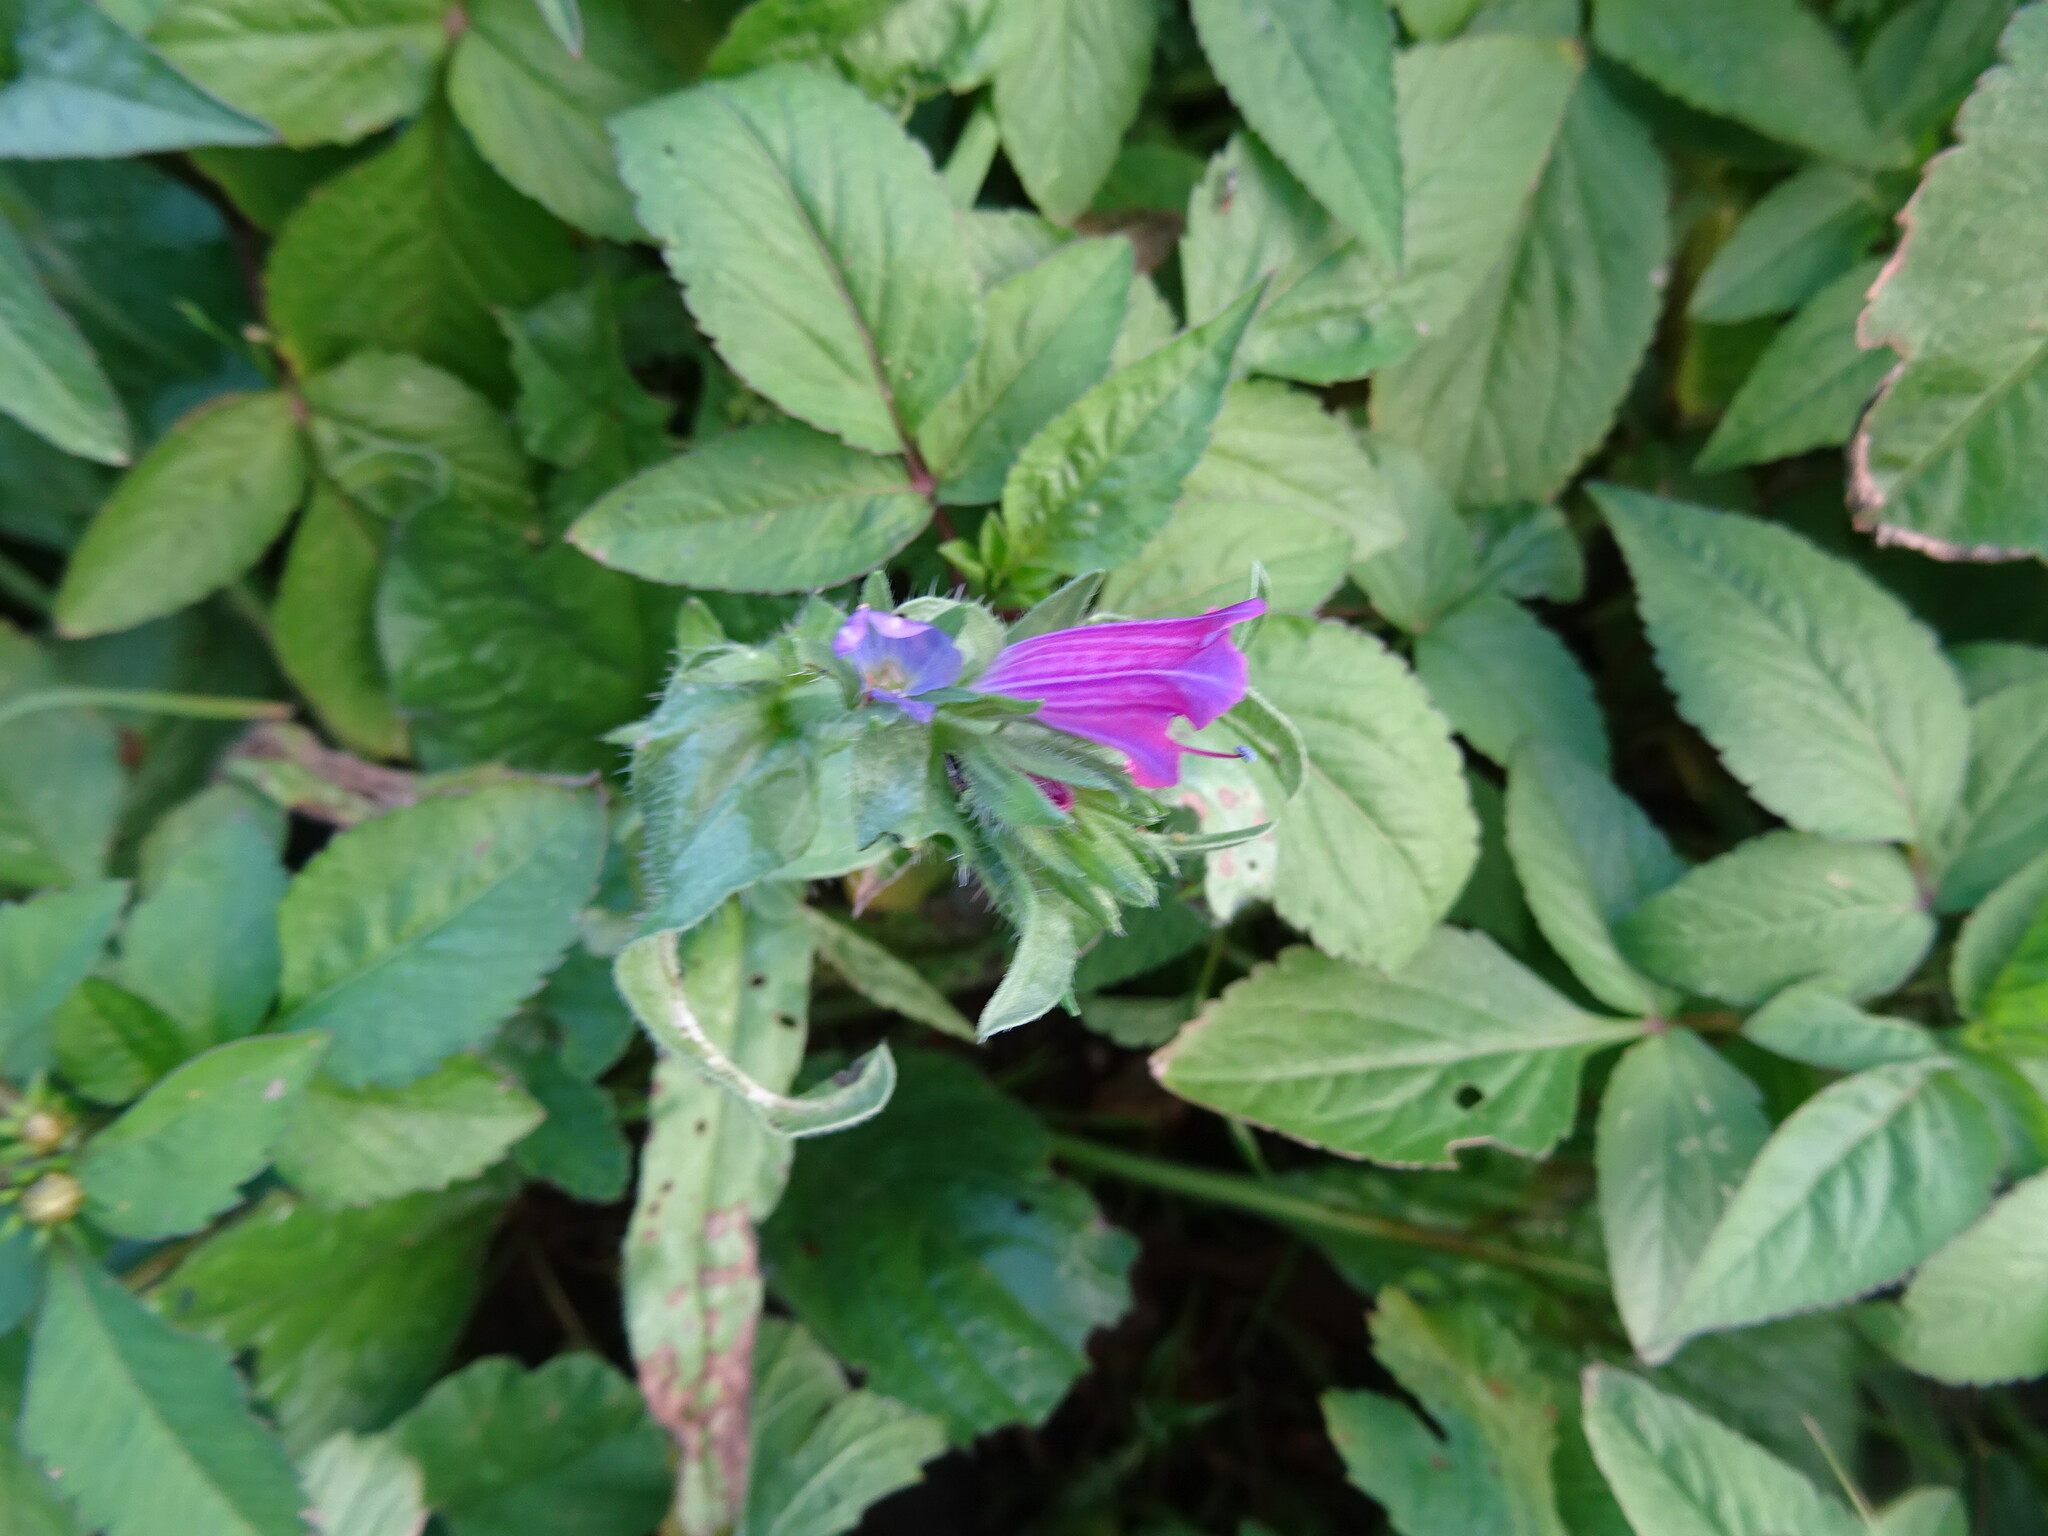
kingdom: Plantae
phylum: Tracheophyta
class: Magnoliopsida
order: Boraginales
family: Boraginaceae
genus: Echium
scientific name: Echium plantagineum
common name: Purple viper's-bugloss
